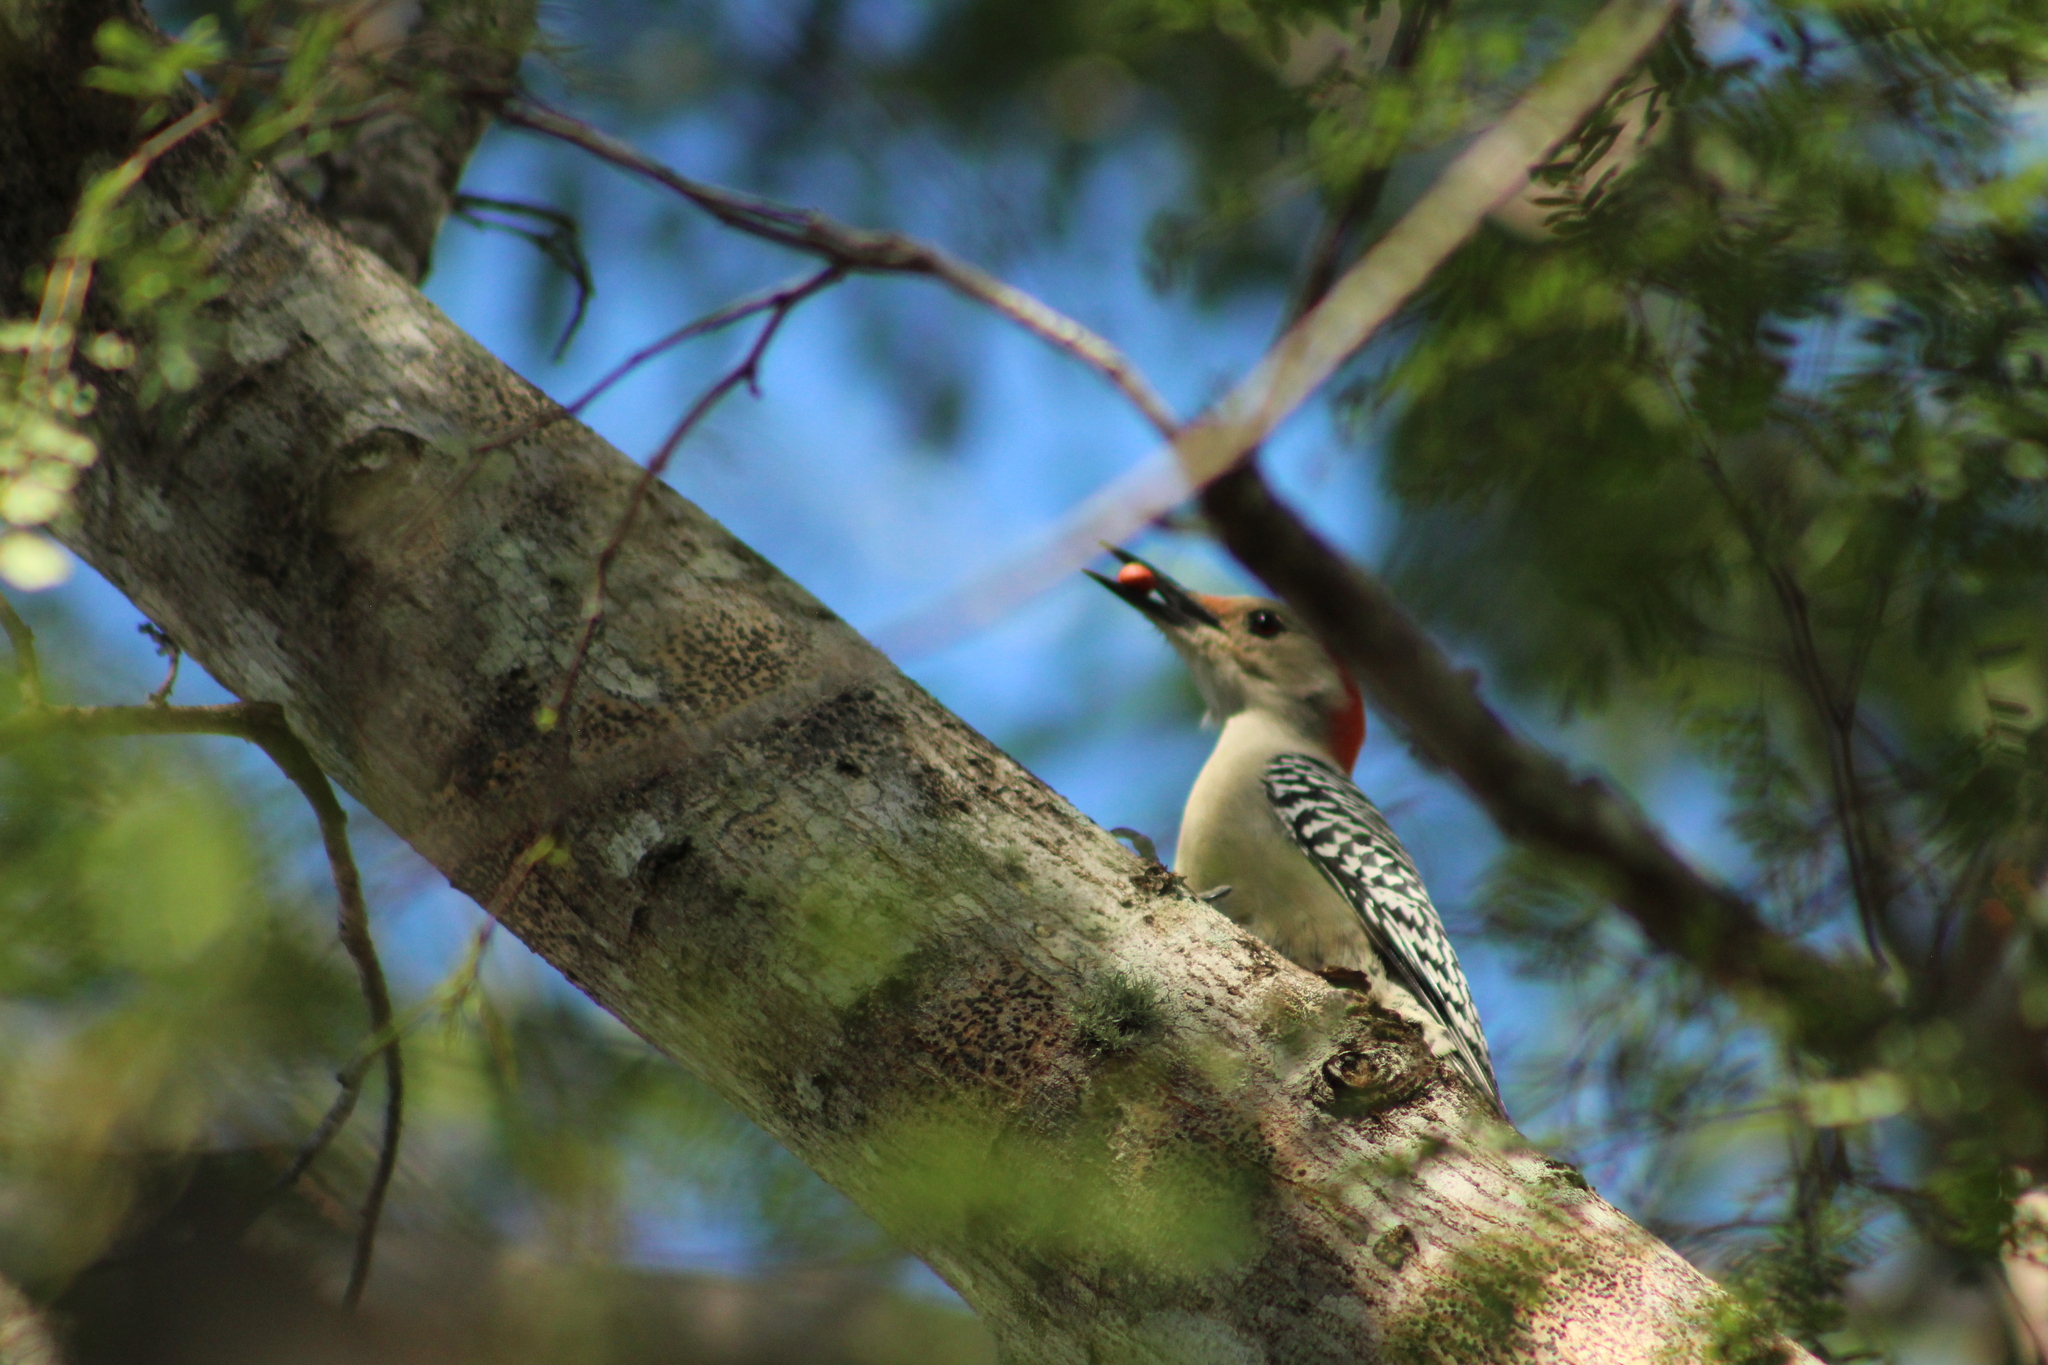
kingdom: Animalia
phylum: Chordata
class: Aves
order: Piciformes
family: Picidae
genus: Melanerpes
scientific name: Melanerpes carolinus
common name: Red-bellied woodpecker
